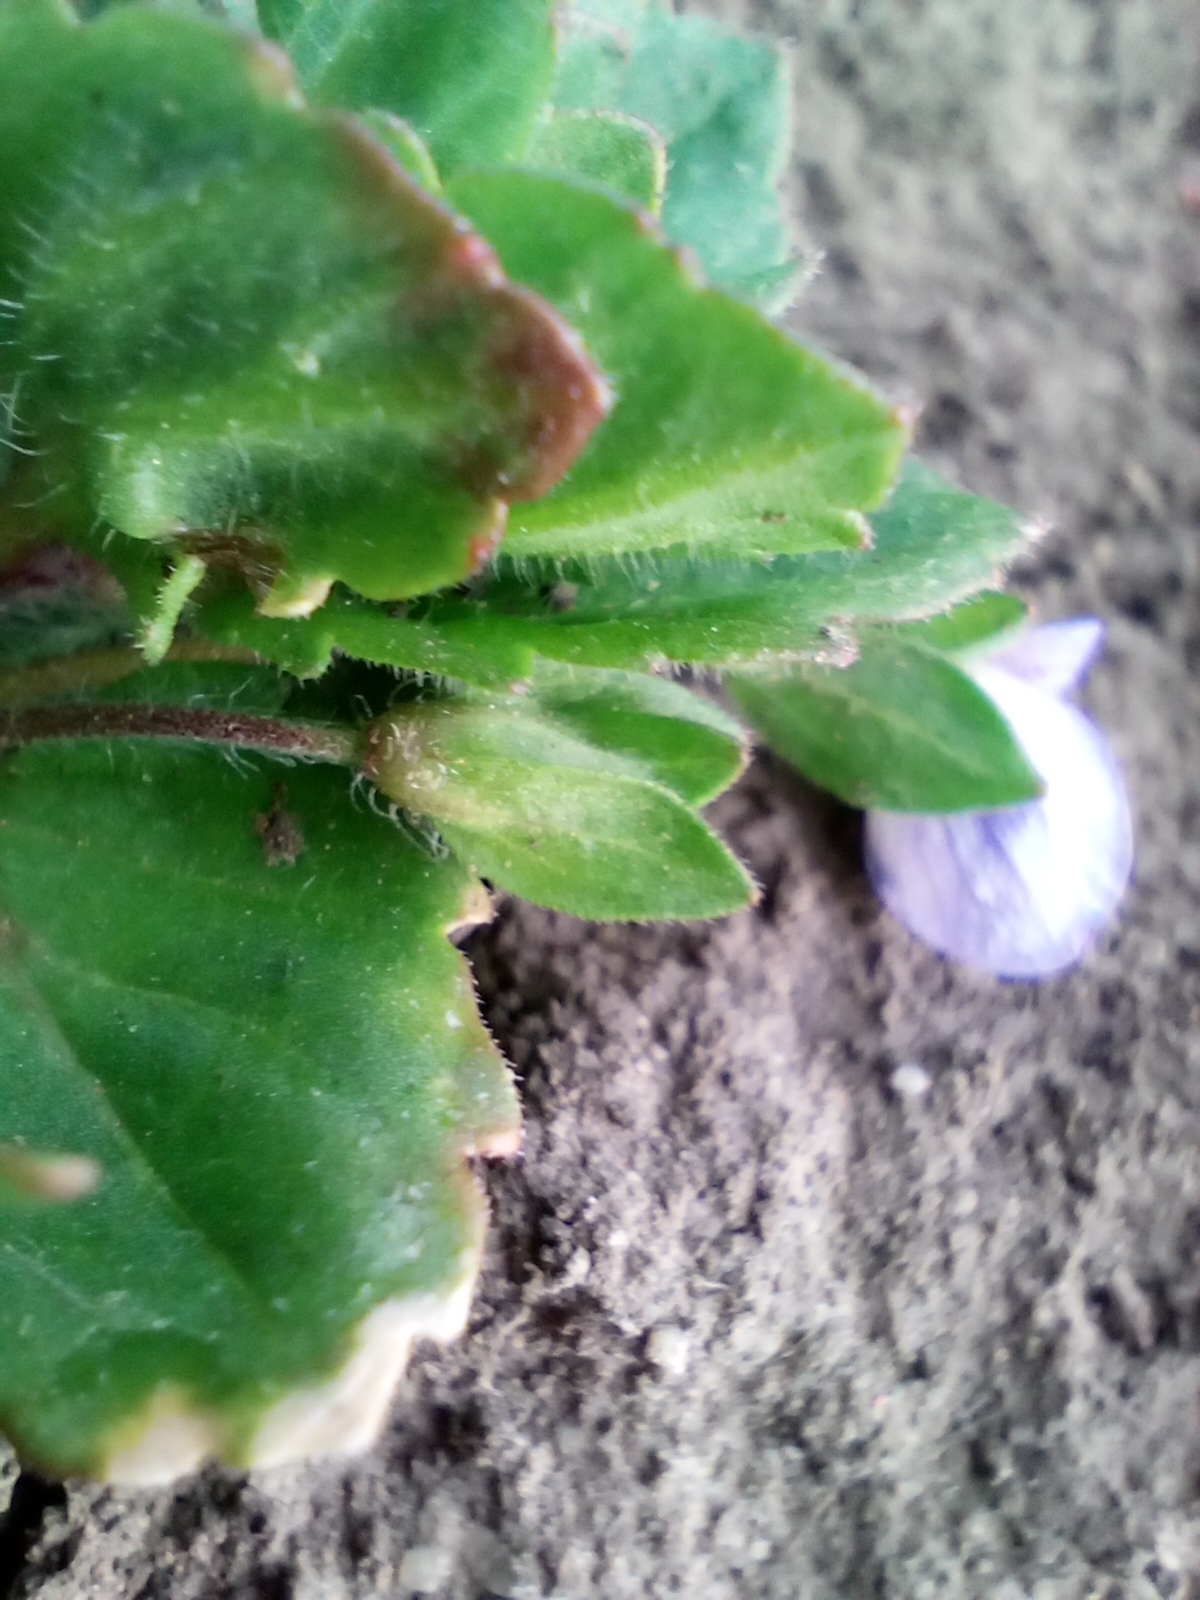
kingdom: Plantae
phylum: Tracheophyta
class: Magnoliopsida
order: Lamiales
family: Plantaginaceae
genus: Veronica
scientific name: Veronica persica
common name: Common field-speedwell
